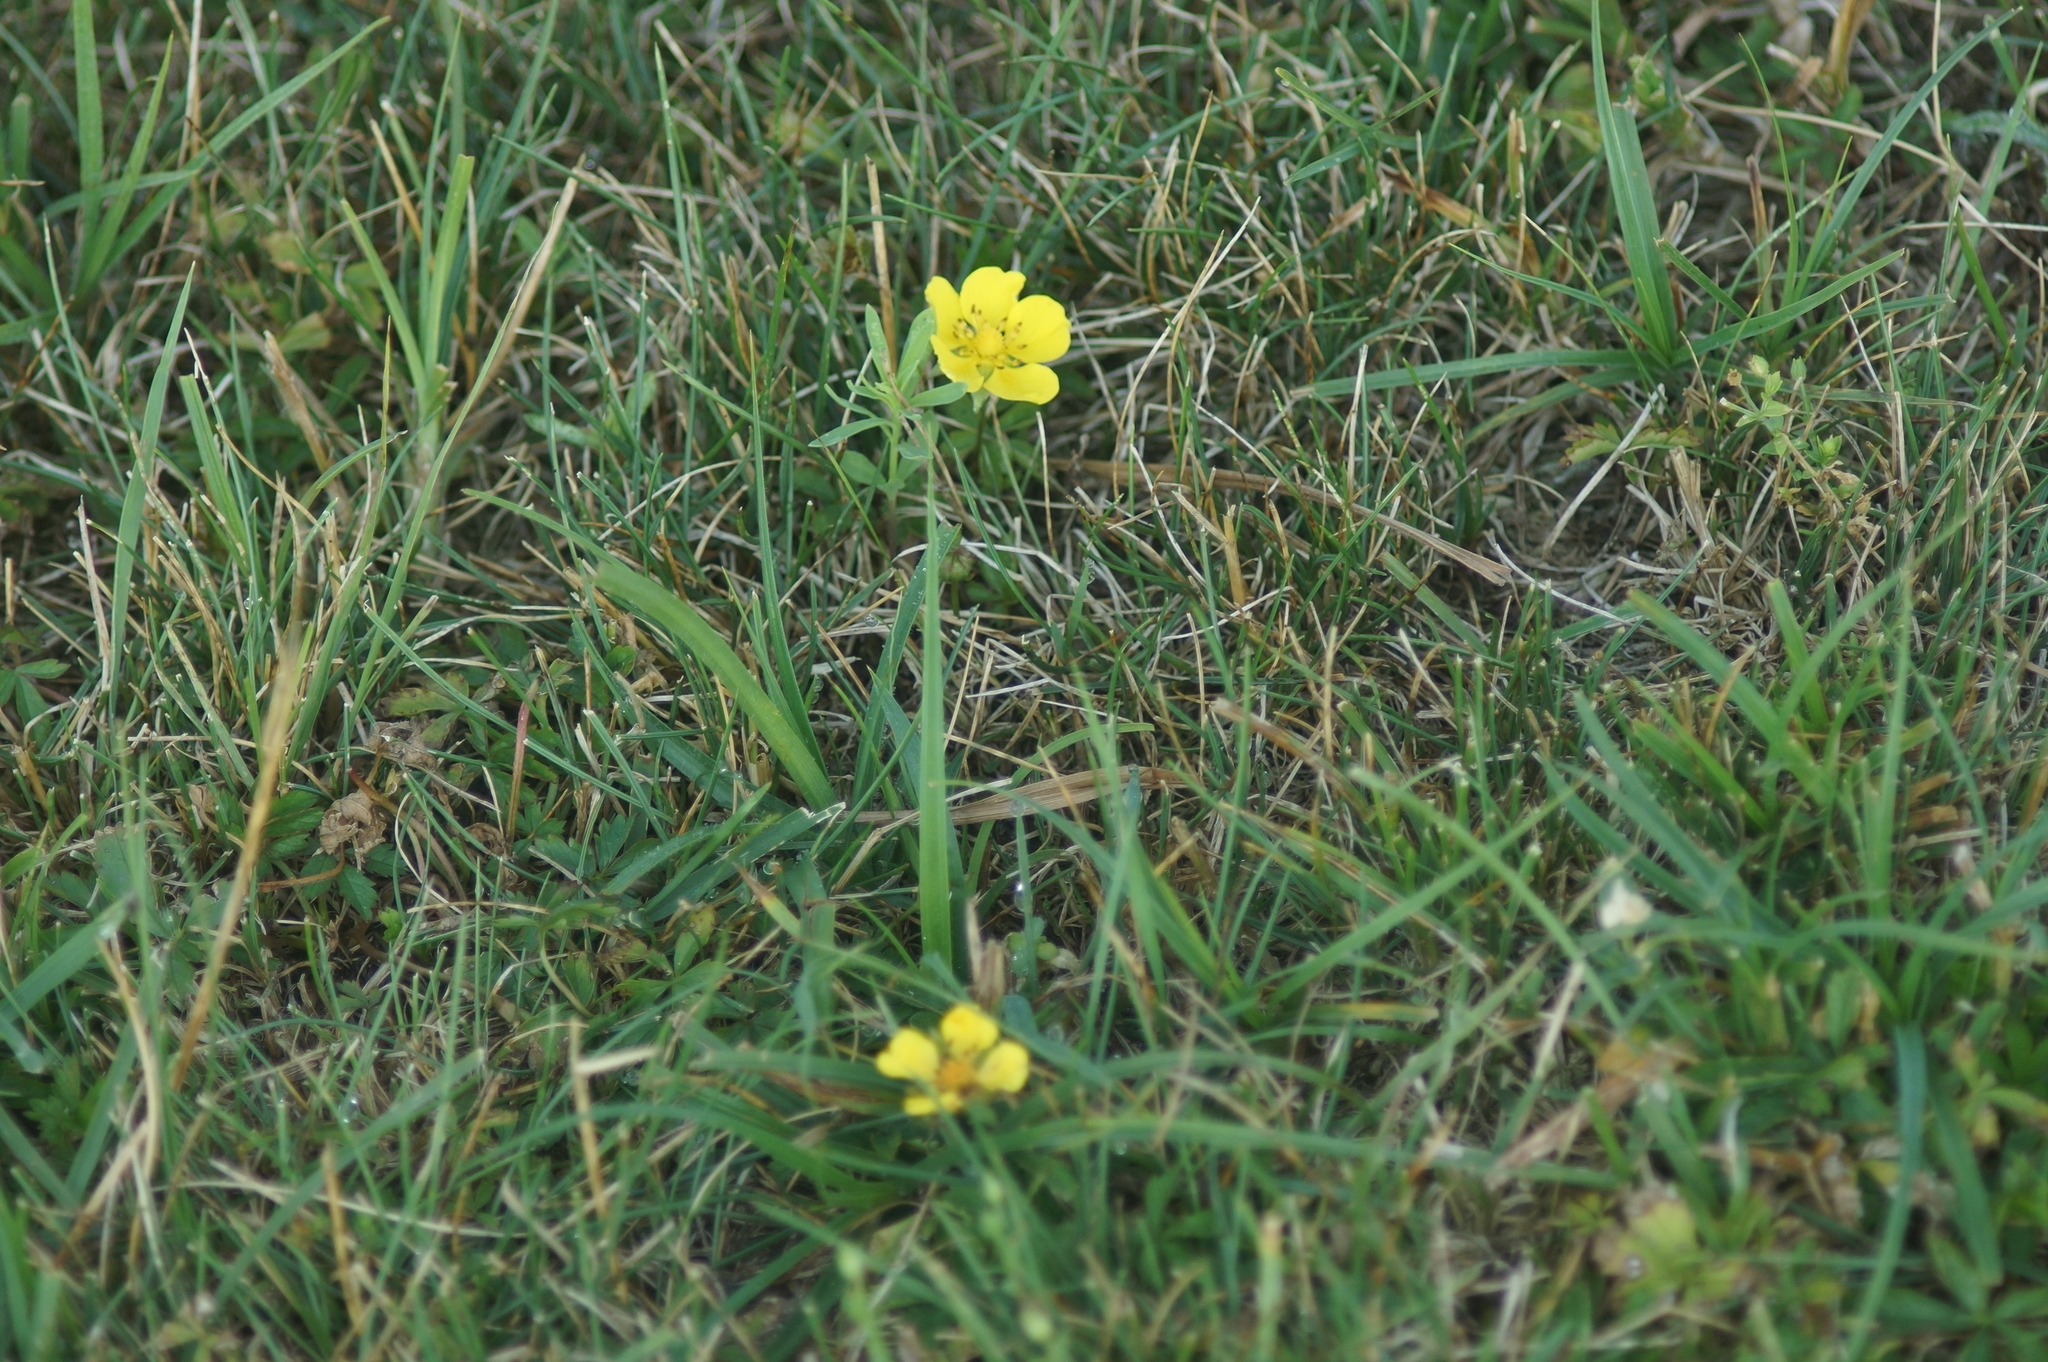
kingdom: Plantae
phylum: Tracheophyta
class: Magnoliopsida
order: Rosales
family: Rosaceae
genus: Potentilla
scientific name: Potentilla reptans
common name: Creeping cinquefoil
